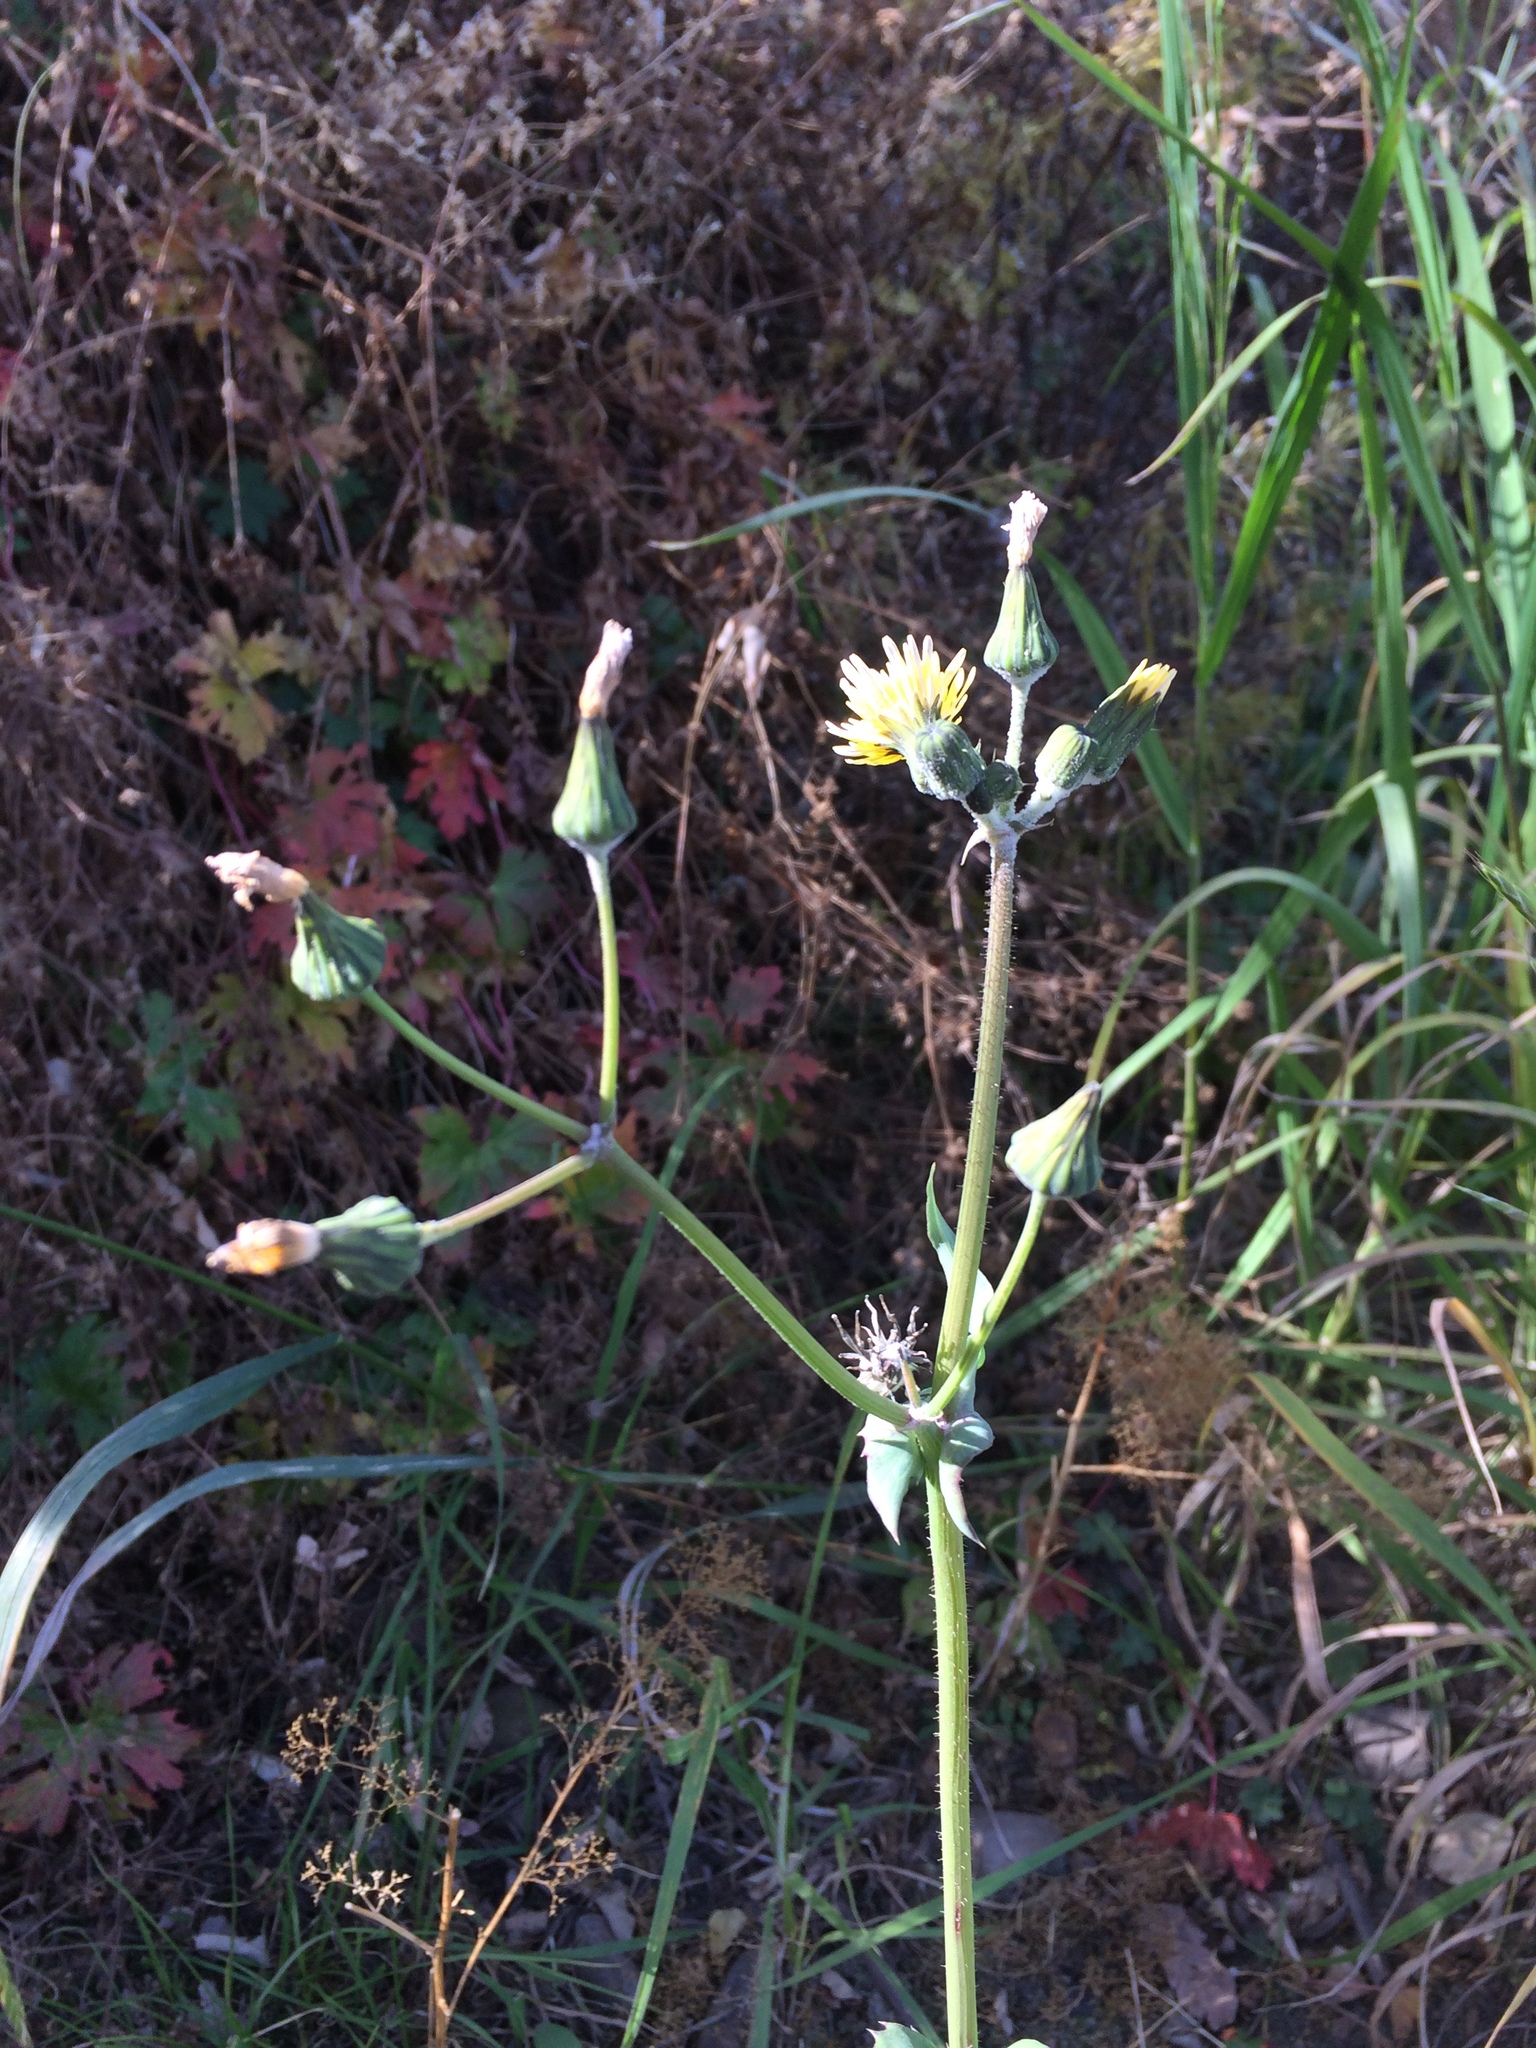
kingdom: Plantae
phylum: Tracheophyta
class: Magnoliopsida
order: Asterales
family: Asteraceae
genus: Sonchus
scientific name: Sonchus oleraceus
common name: Common sowthistle
